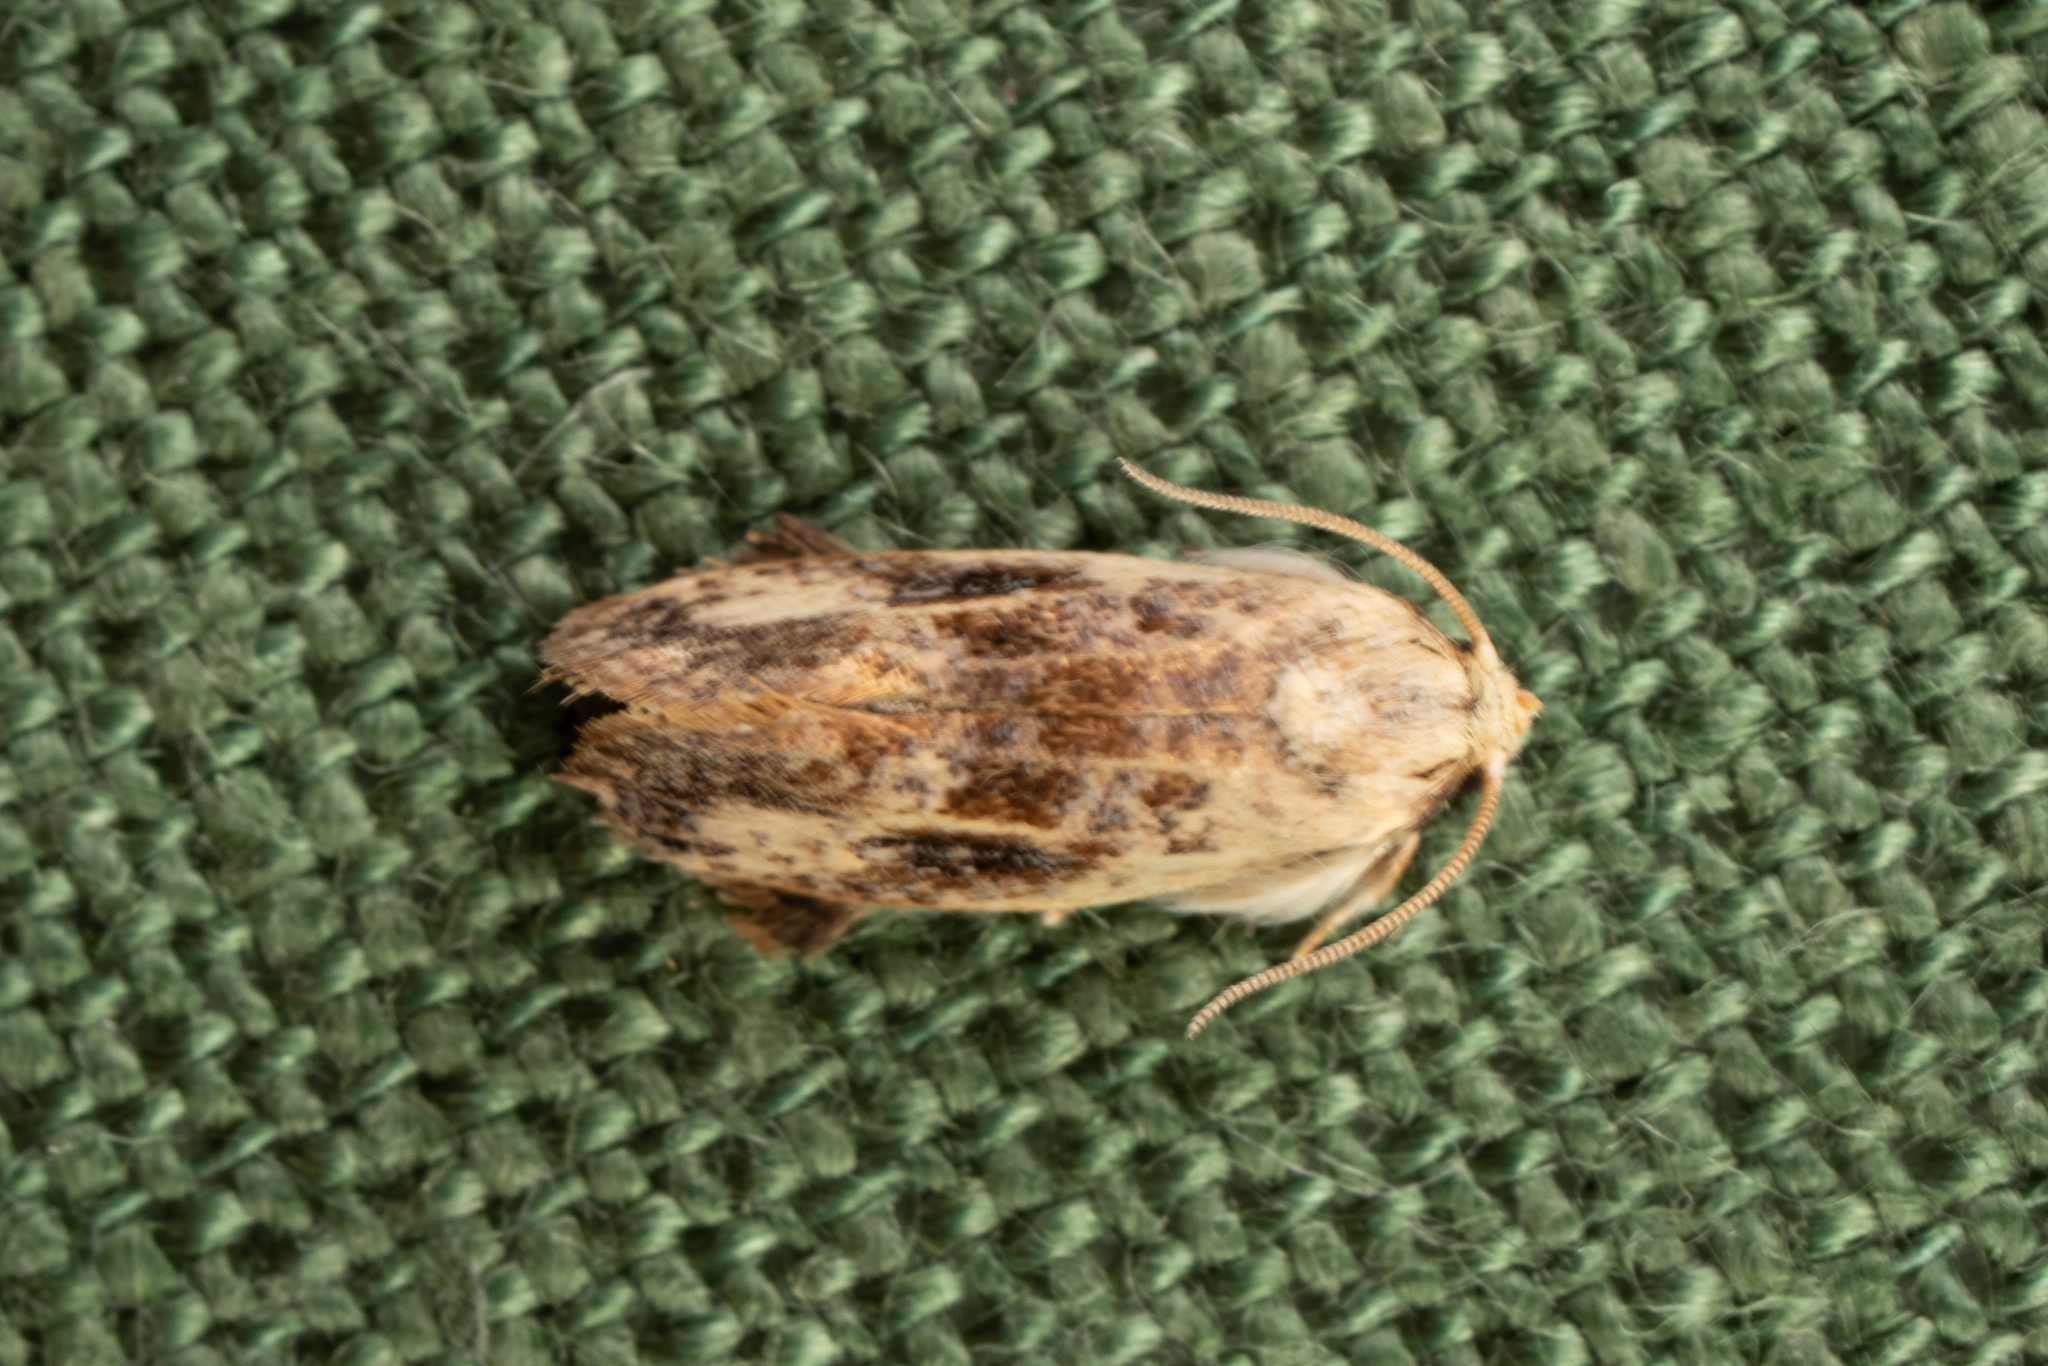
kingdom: Animalia
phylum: Arthropoda
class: Insecta
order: Lepidoptera
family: Tineidae
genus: Acrolophus
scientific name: Acrolophus mycetophagus
